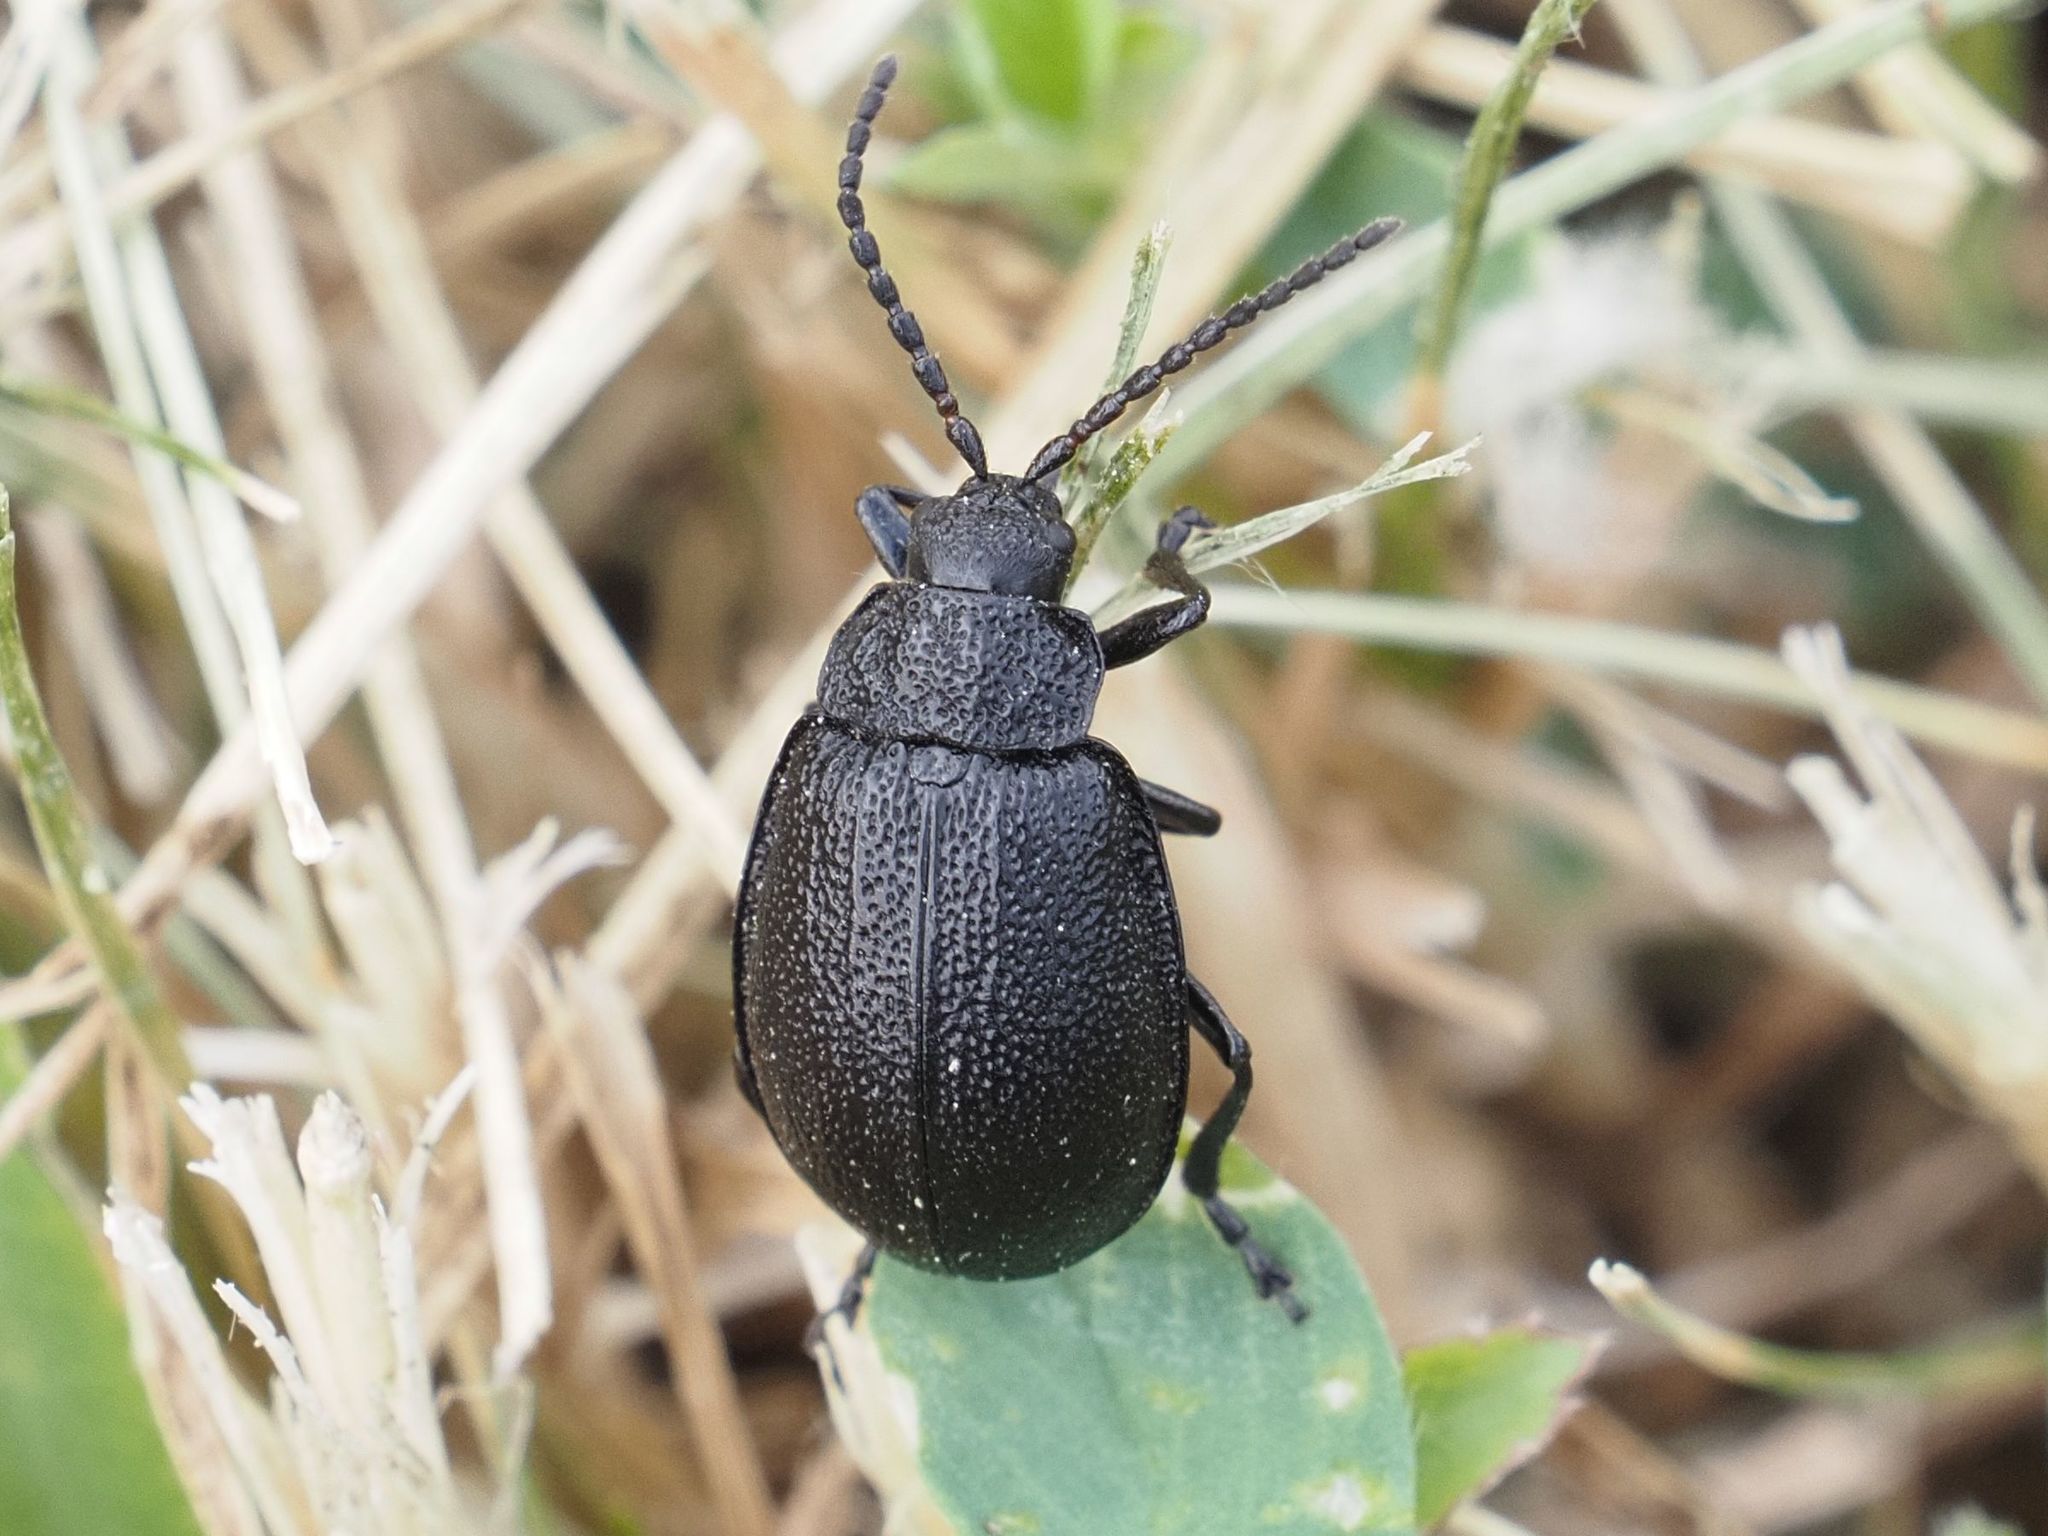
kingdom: Animalia
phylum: Arthropoda
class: Insecta
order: Coleoptera
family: Chrysomelidae
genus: Galeruca
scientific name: Galeruca tanaceti
